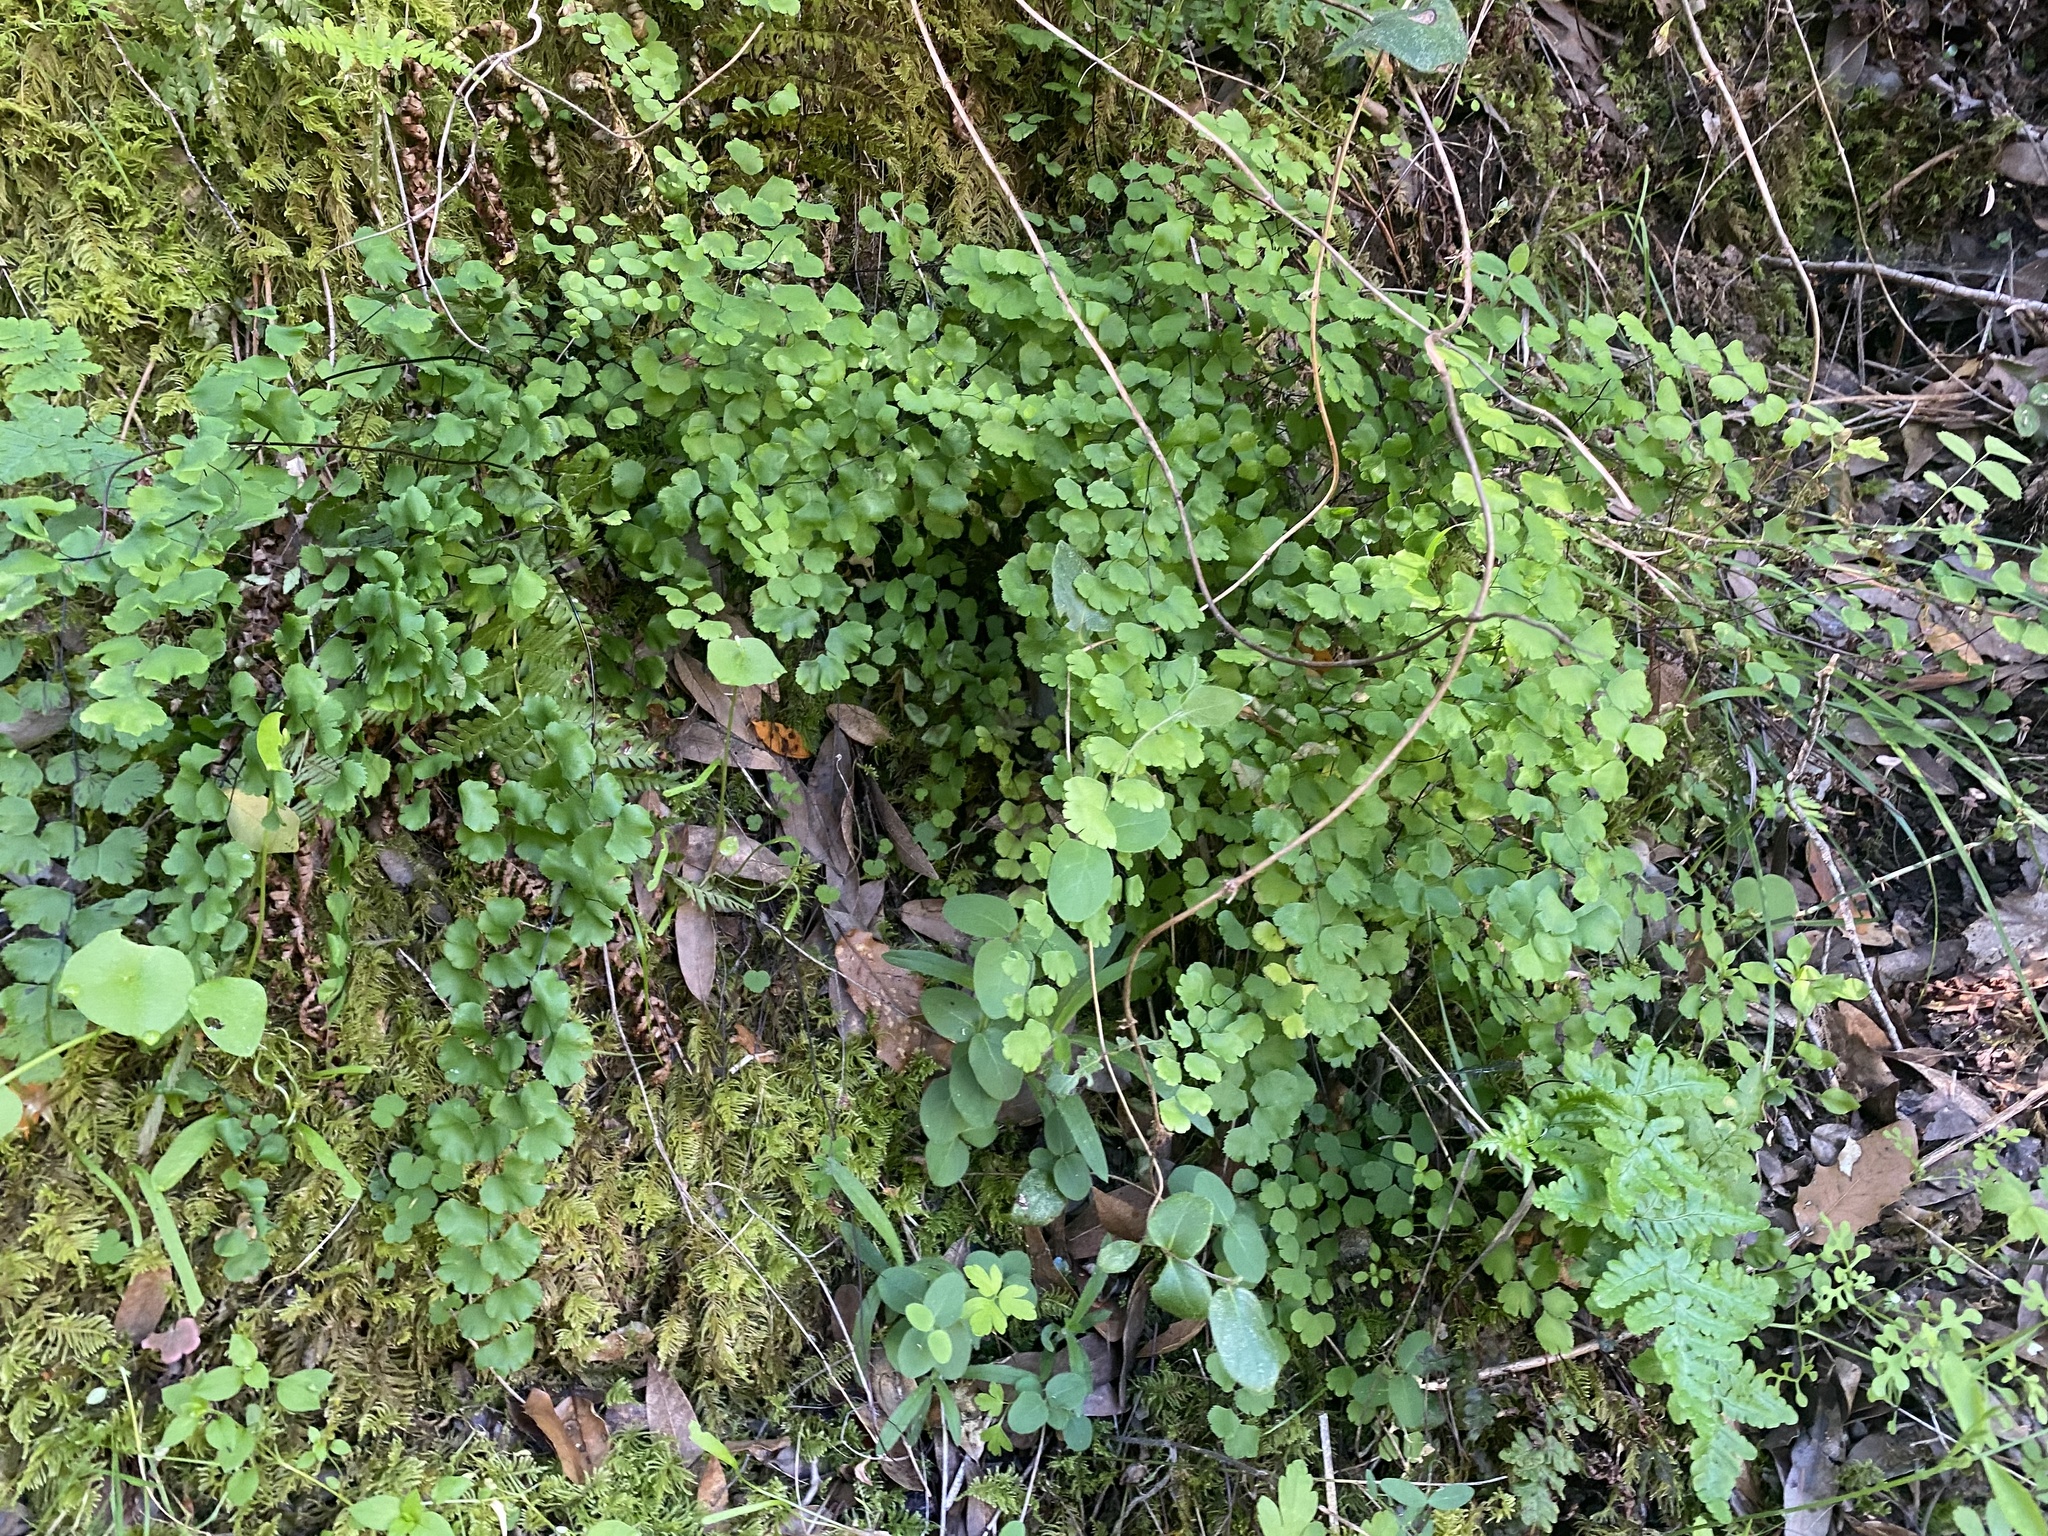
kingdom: Plantae
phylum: Tracheophyta
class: Polypodiopsida
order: Polypodiales
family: Pteridaceae
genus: Adiantum
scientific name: Adiantum jordanii
